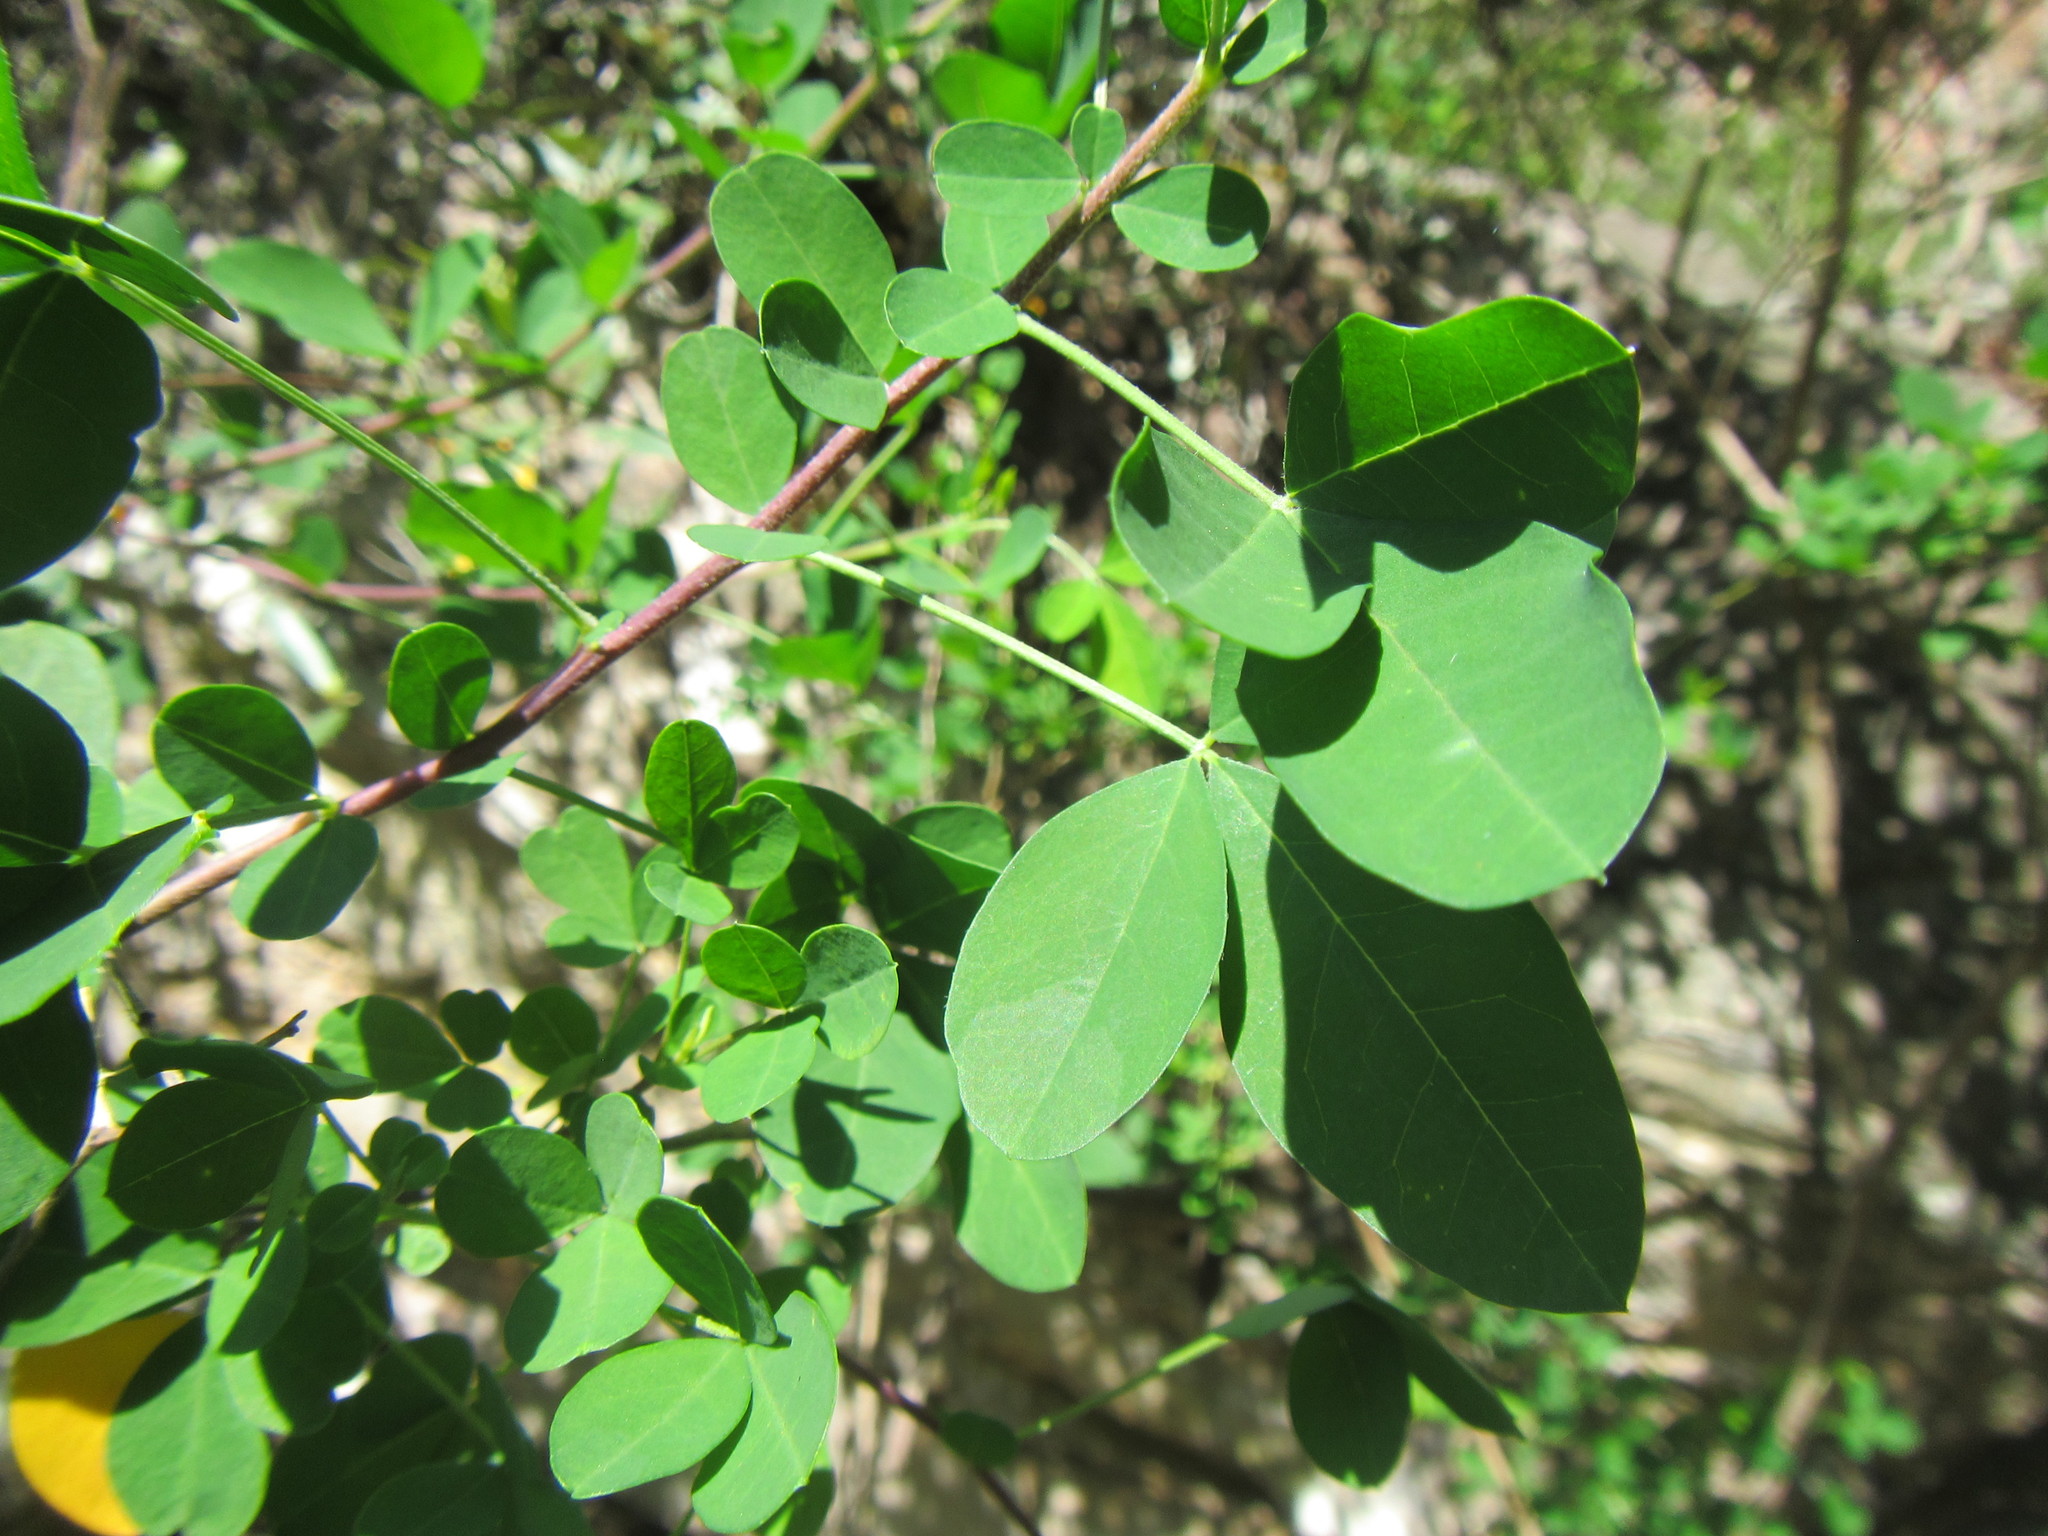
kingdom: Plantae
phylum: Tracheophyta
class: Magnoliopsida
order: Fabales
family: Fabaceae
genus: Crotalaria
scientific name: Crotalaria capensis
